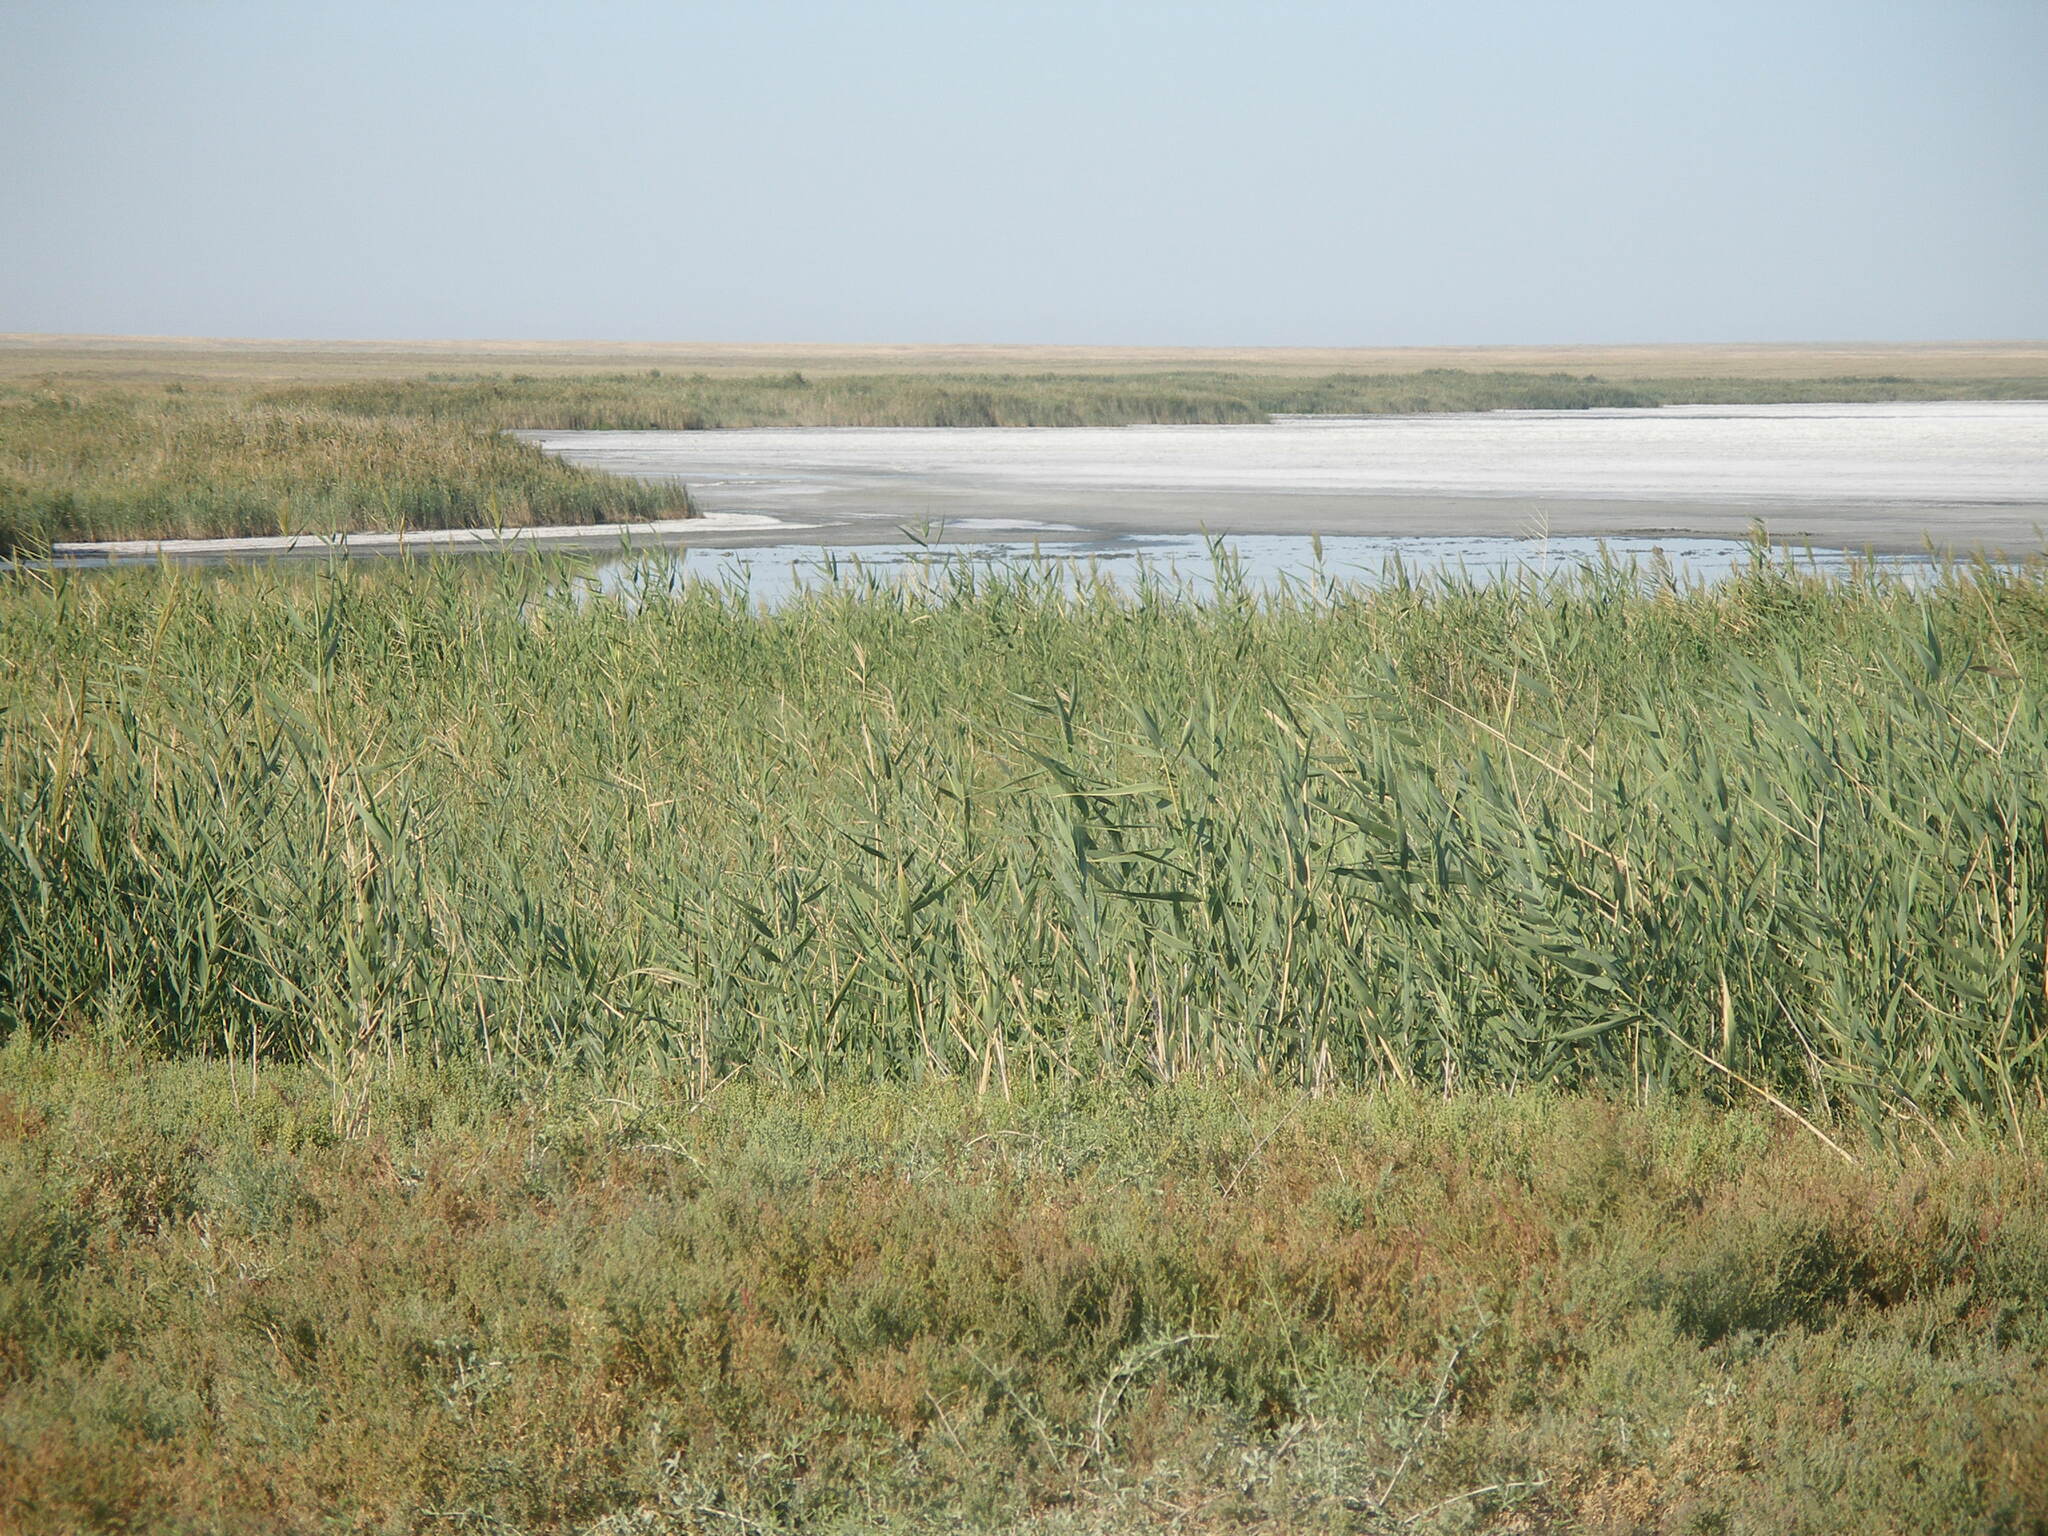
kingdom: Plantae
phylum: Tracheophyta
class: Liliopsida
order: Poales
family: Poaceae
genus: Phragmites
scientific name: Phragmites australis
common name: Common reed
